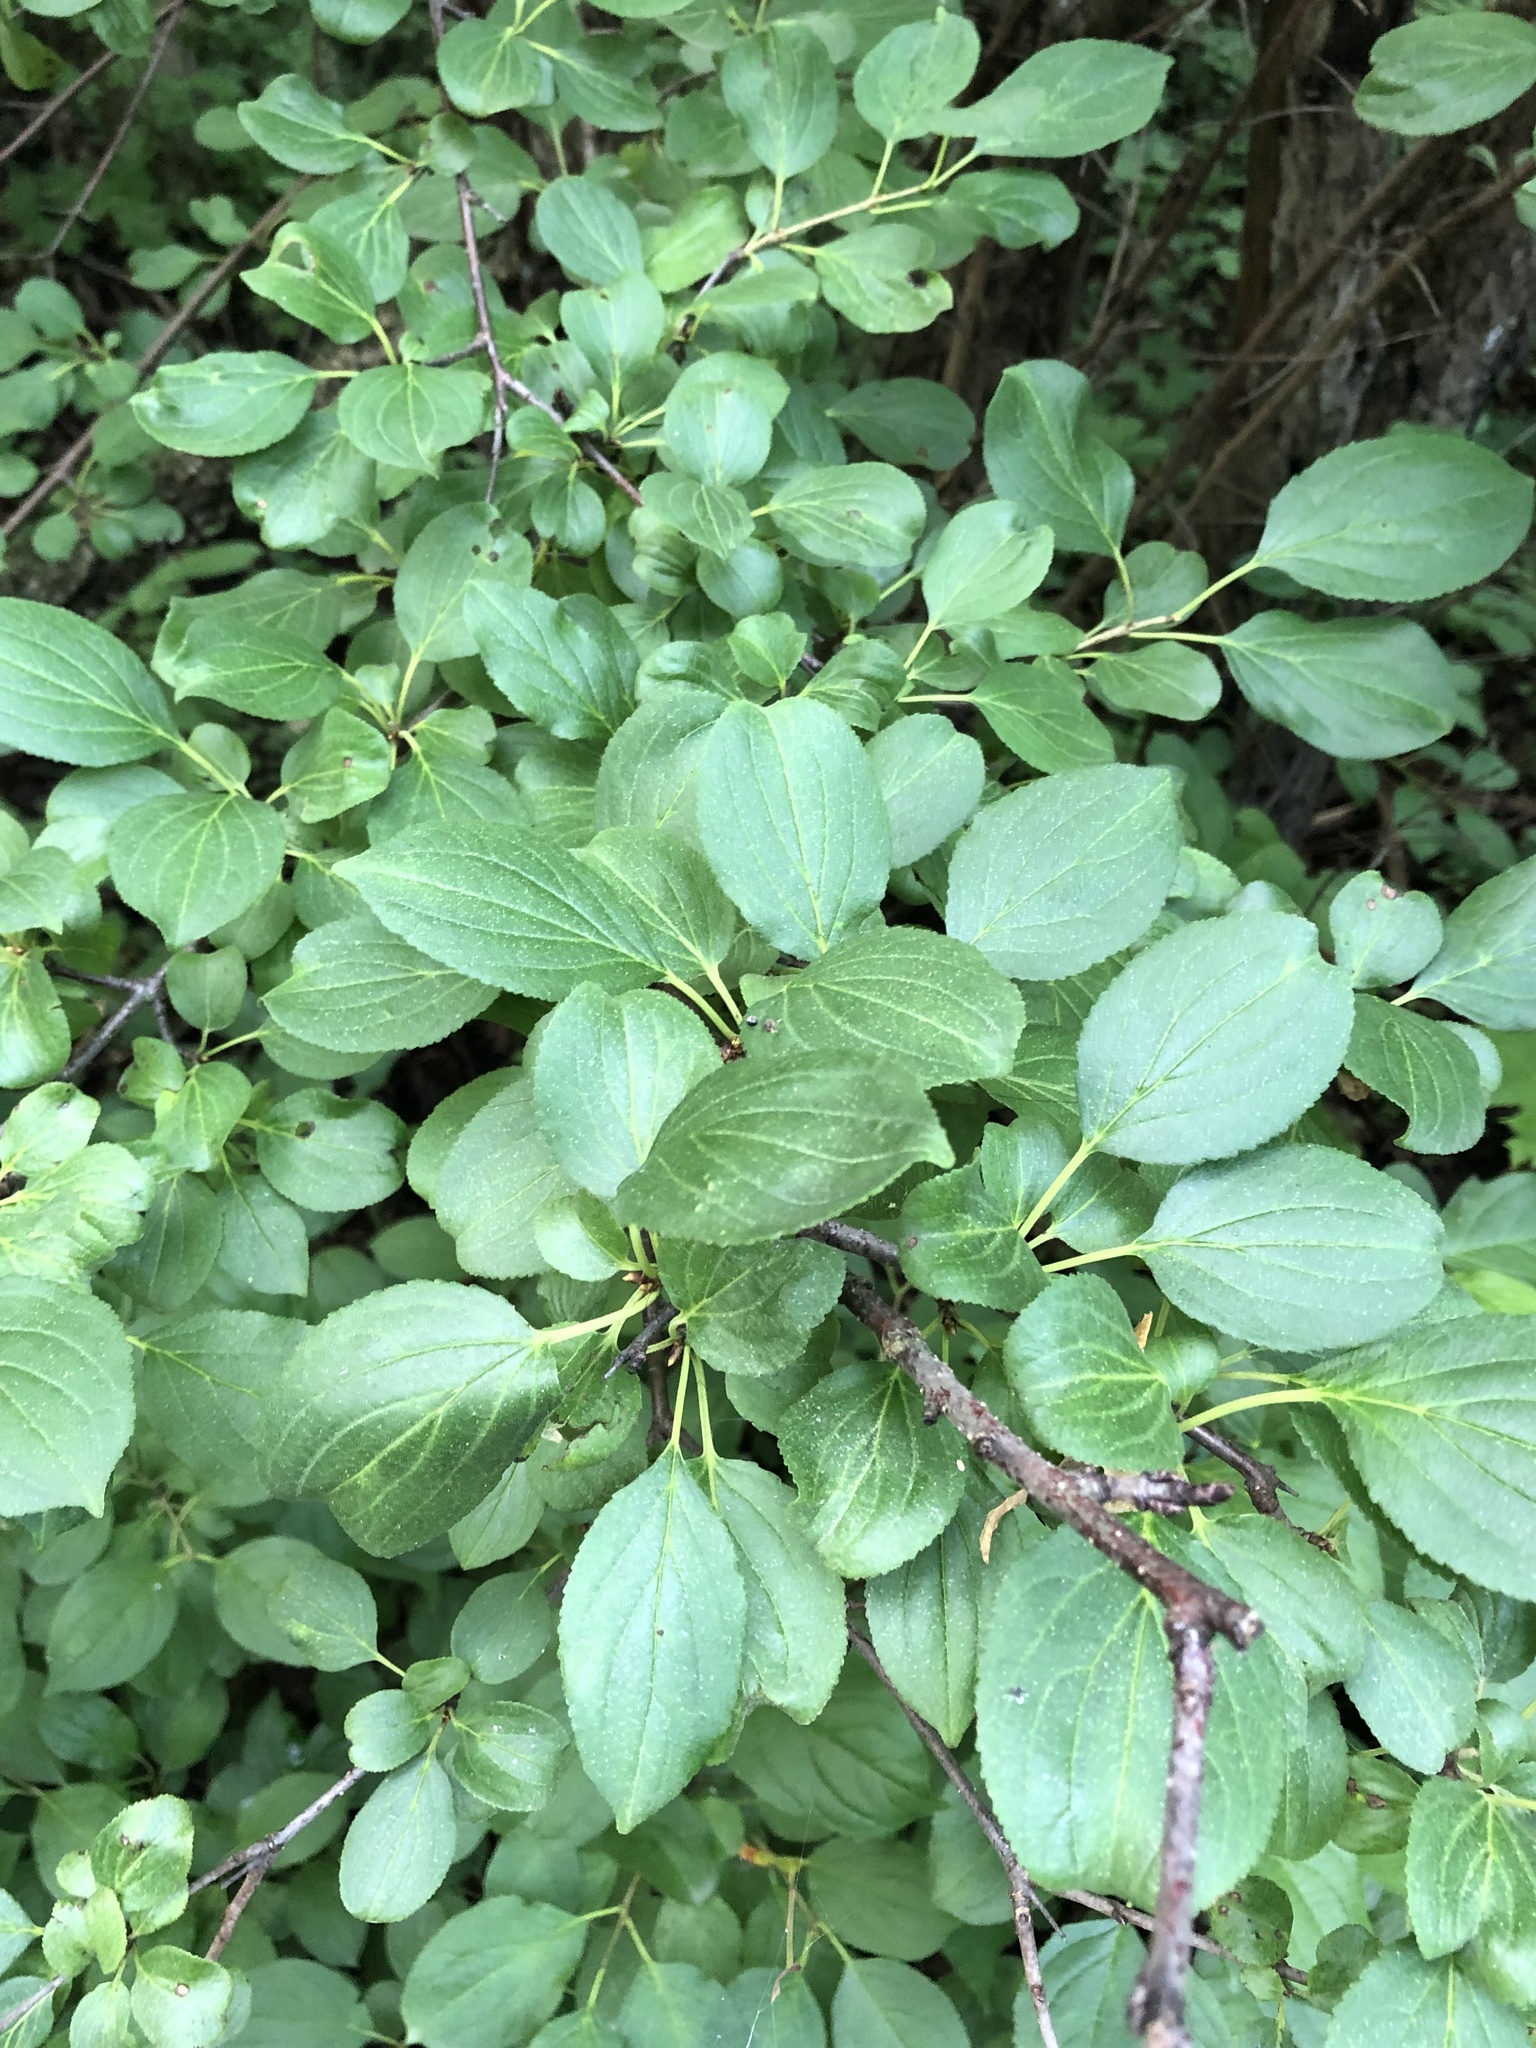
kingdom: Plantae
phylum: Tracheophyta
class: Magnoliopsida
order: Rosales
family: Rhamnaceae
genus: Rhamnus
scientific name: Rhamnus cathartica
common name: Common buckthorn
